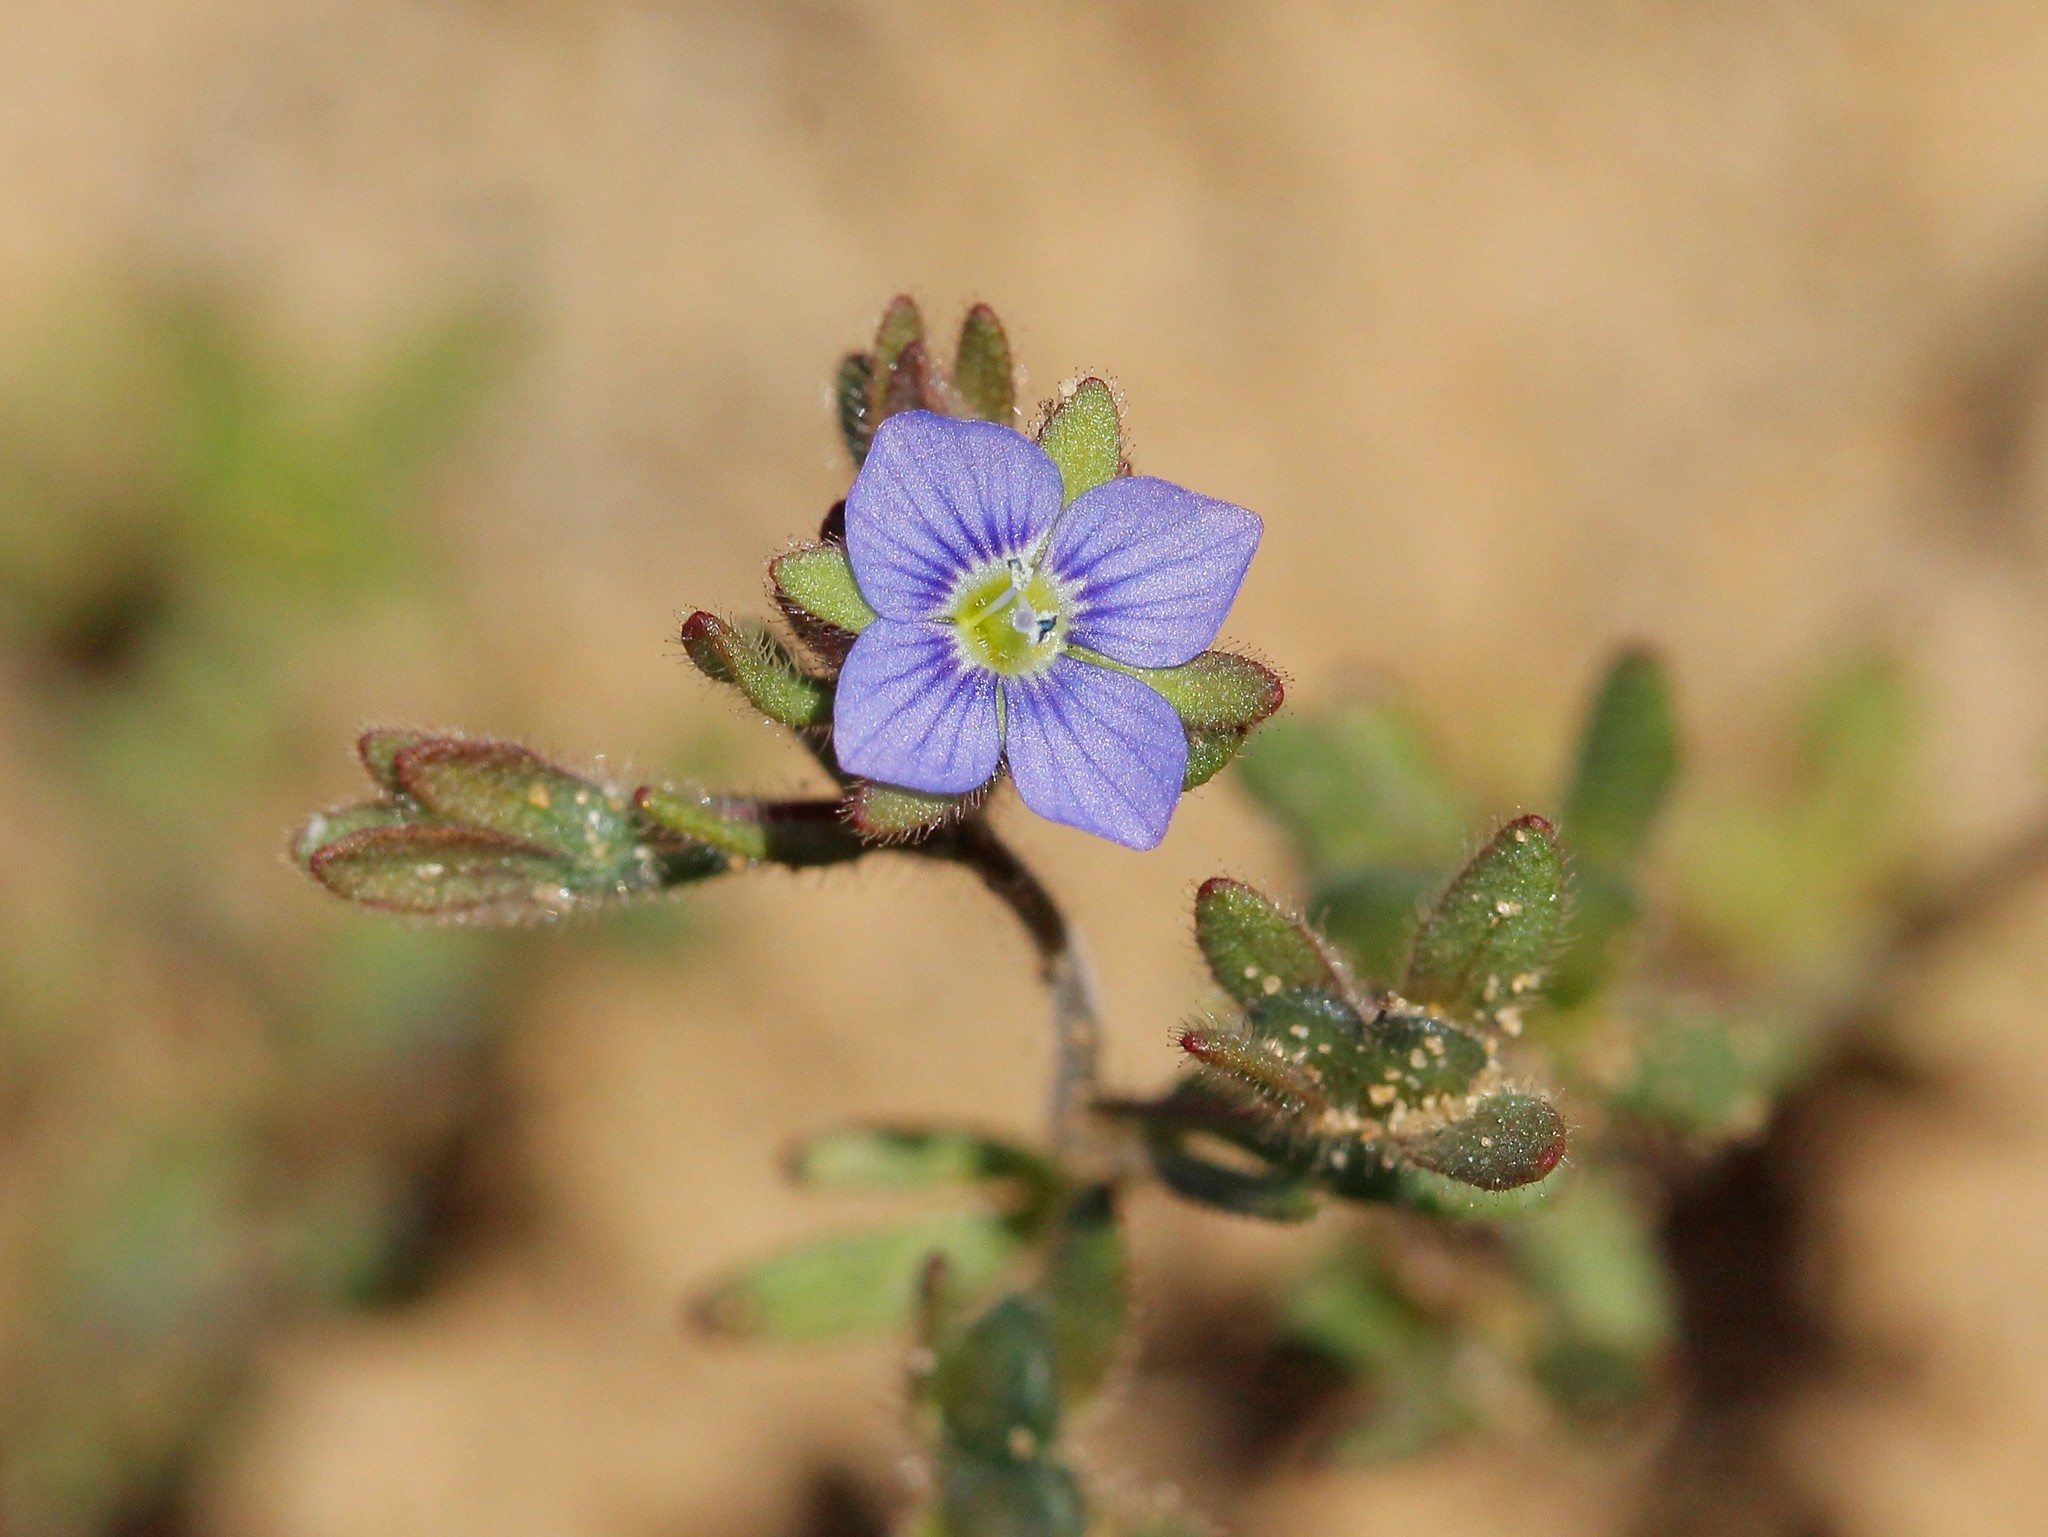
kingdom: Plantae
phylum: Tracheophyta
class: Magnoliopsida
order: Lamiales
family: Plantaginaceae
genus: Veronica
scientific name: Veronica triphyllos
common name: Fingered speedwell
